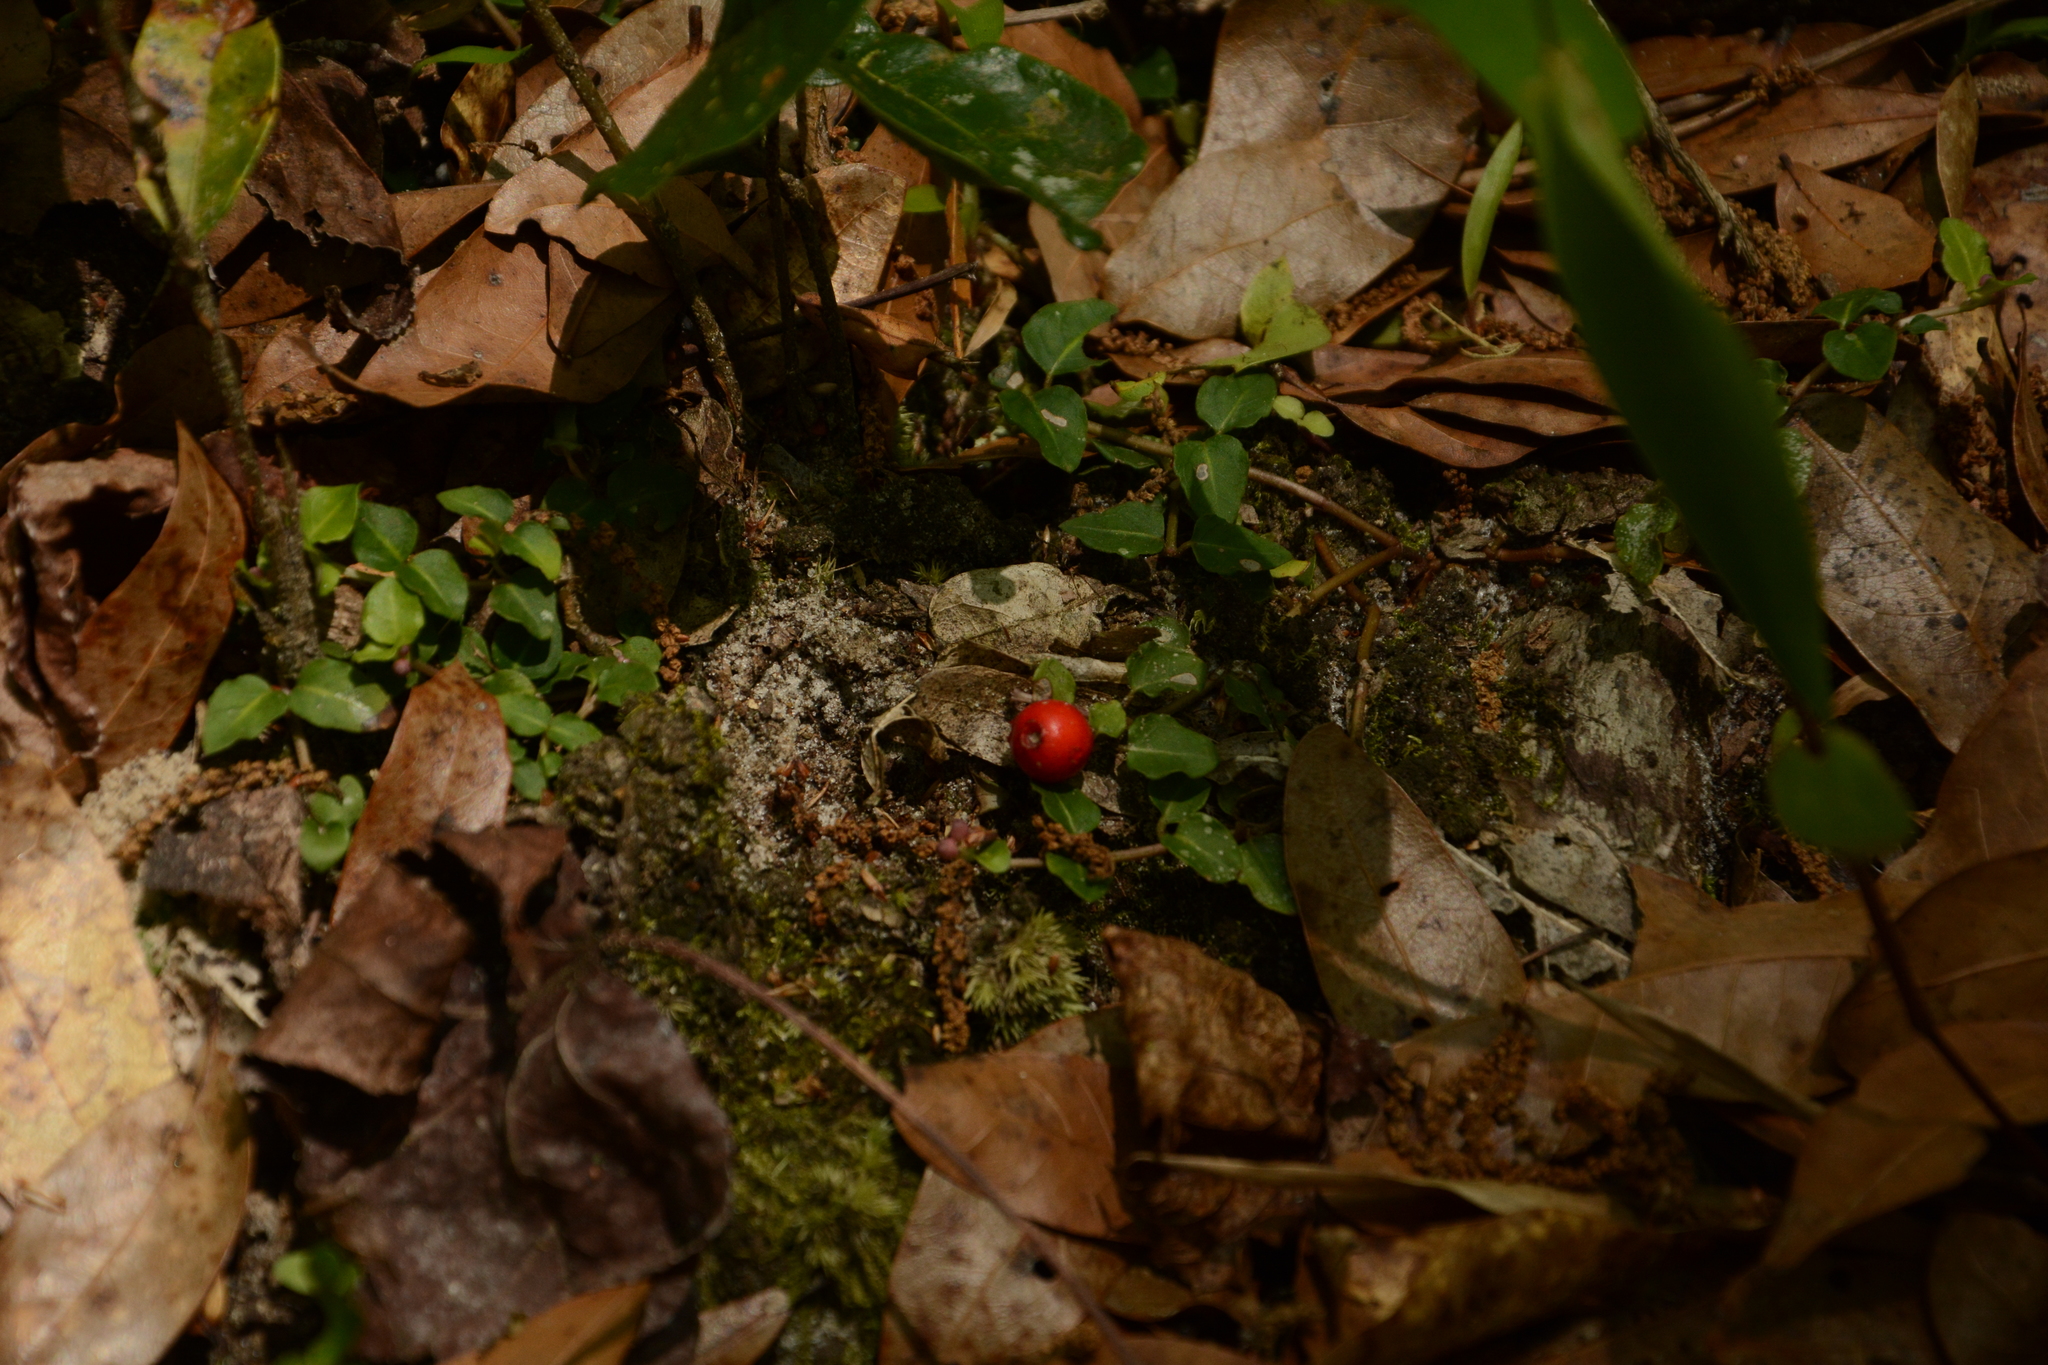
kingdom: Plantae
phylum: Tracheophyta
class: Magnoliopsida
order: Gentianales
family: Rubiaceae
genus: Mitchella
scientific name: Mitchella repens
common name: Partridge-berry
